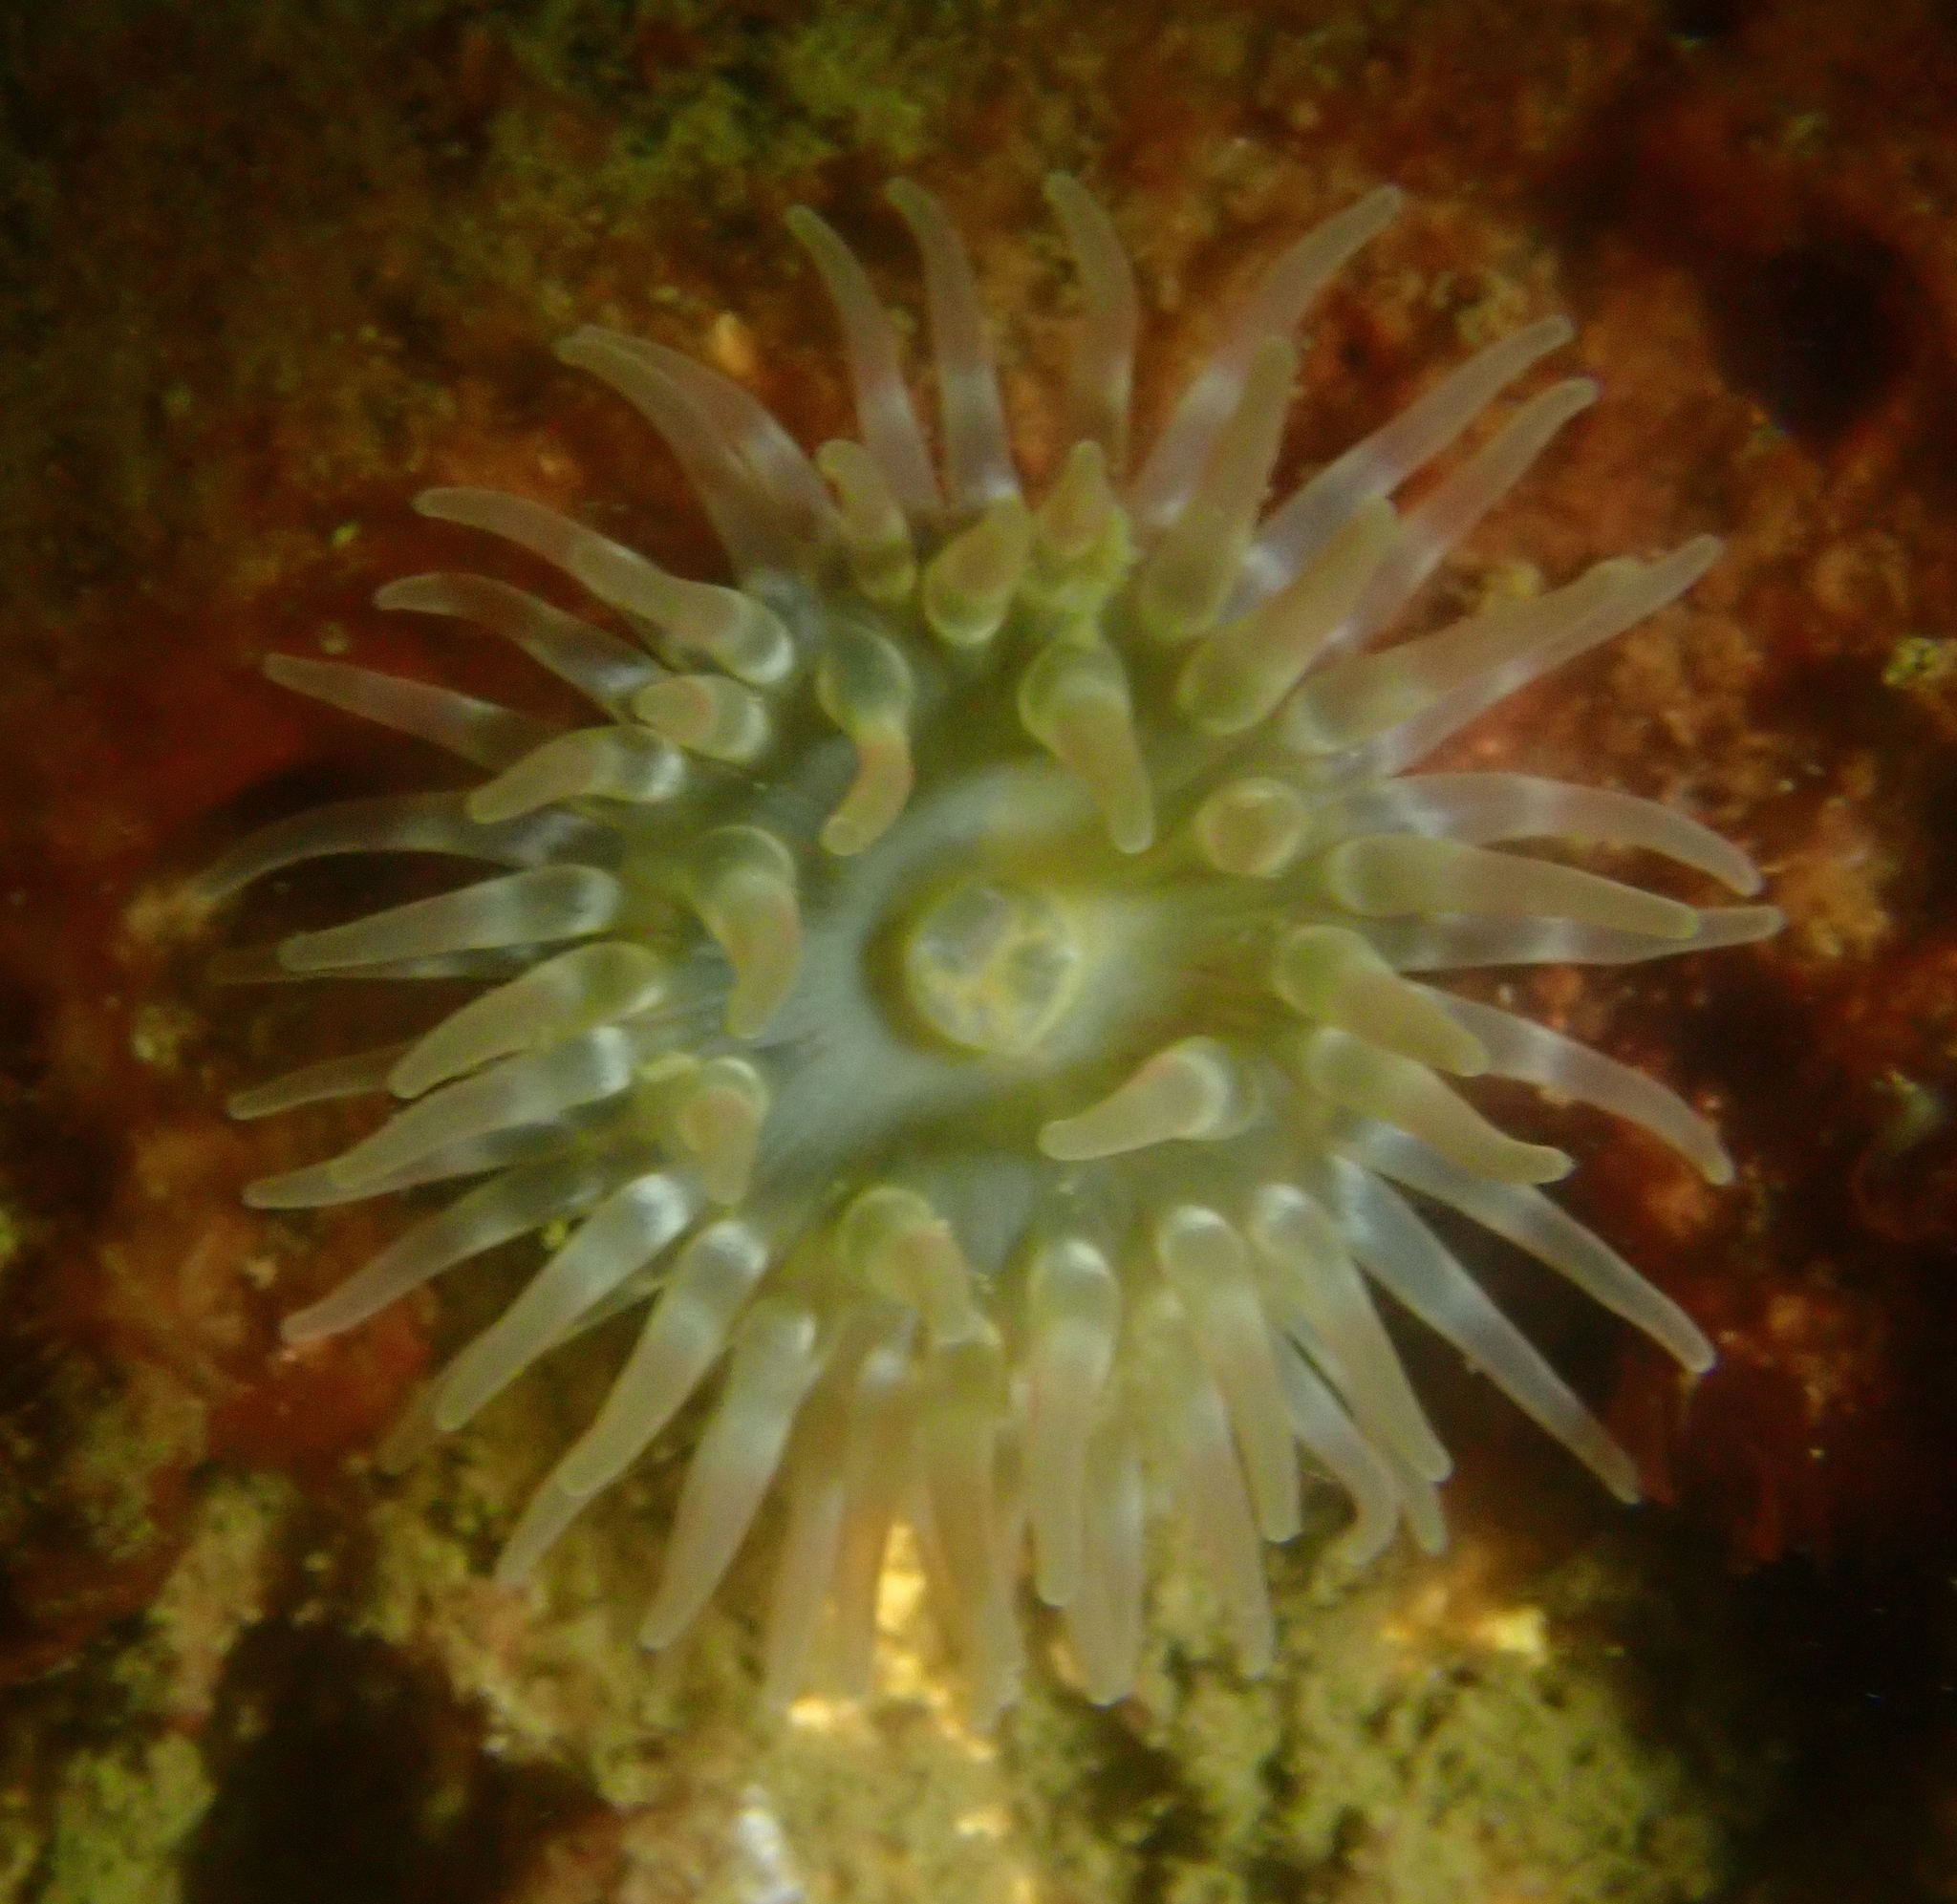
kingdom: Animalia
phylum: Cnidaria
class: Anthozoa
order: Actiniaria
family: Actiniidae
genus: Urticina
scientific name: Urticina felina
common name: Dahlia anemone
